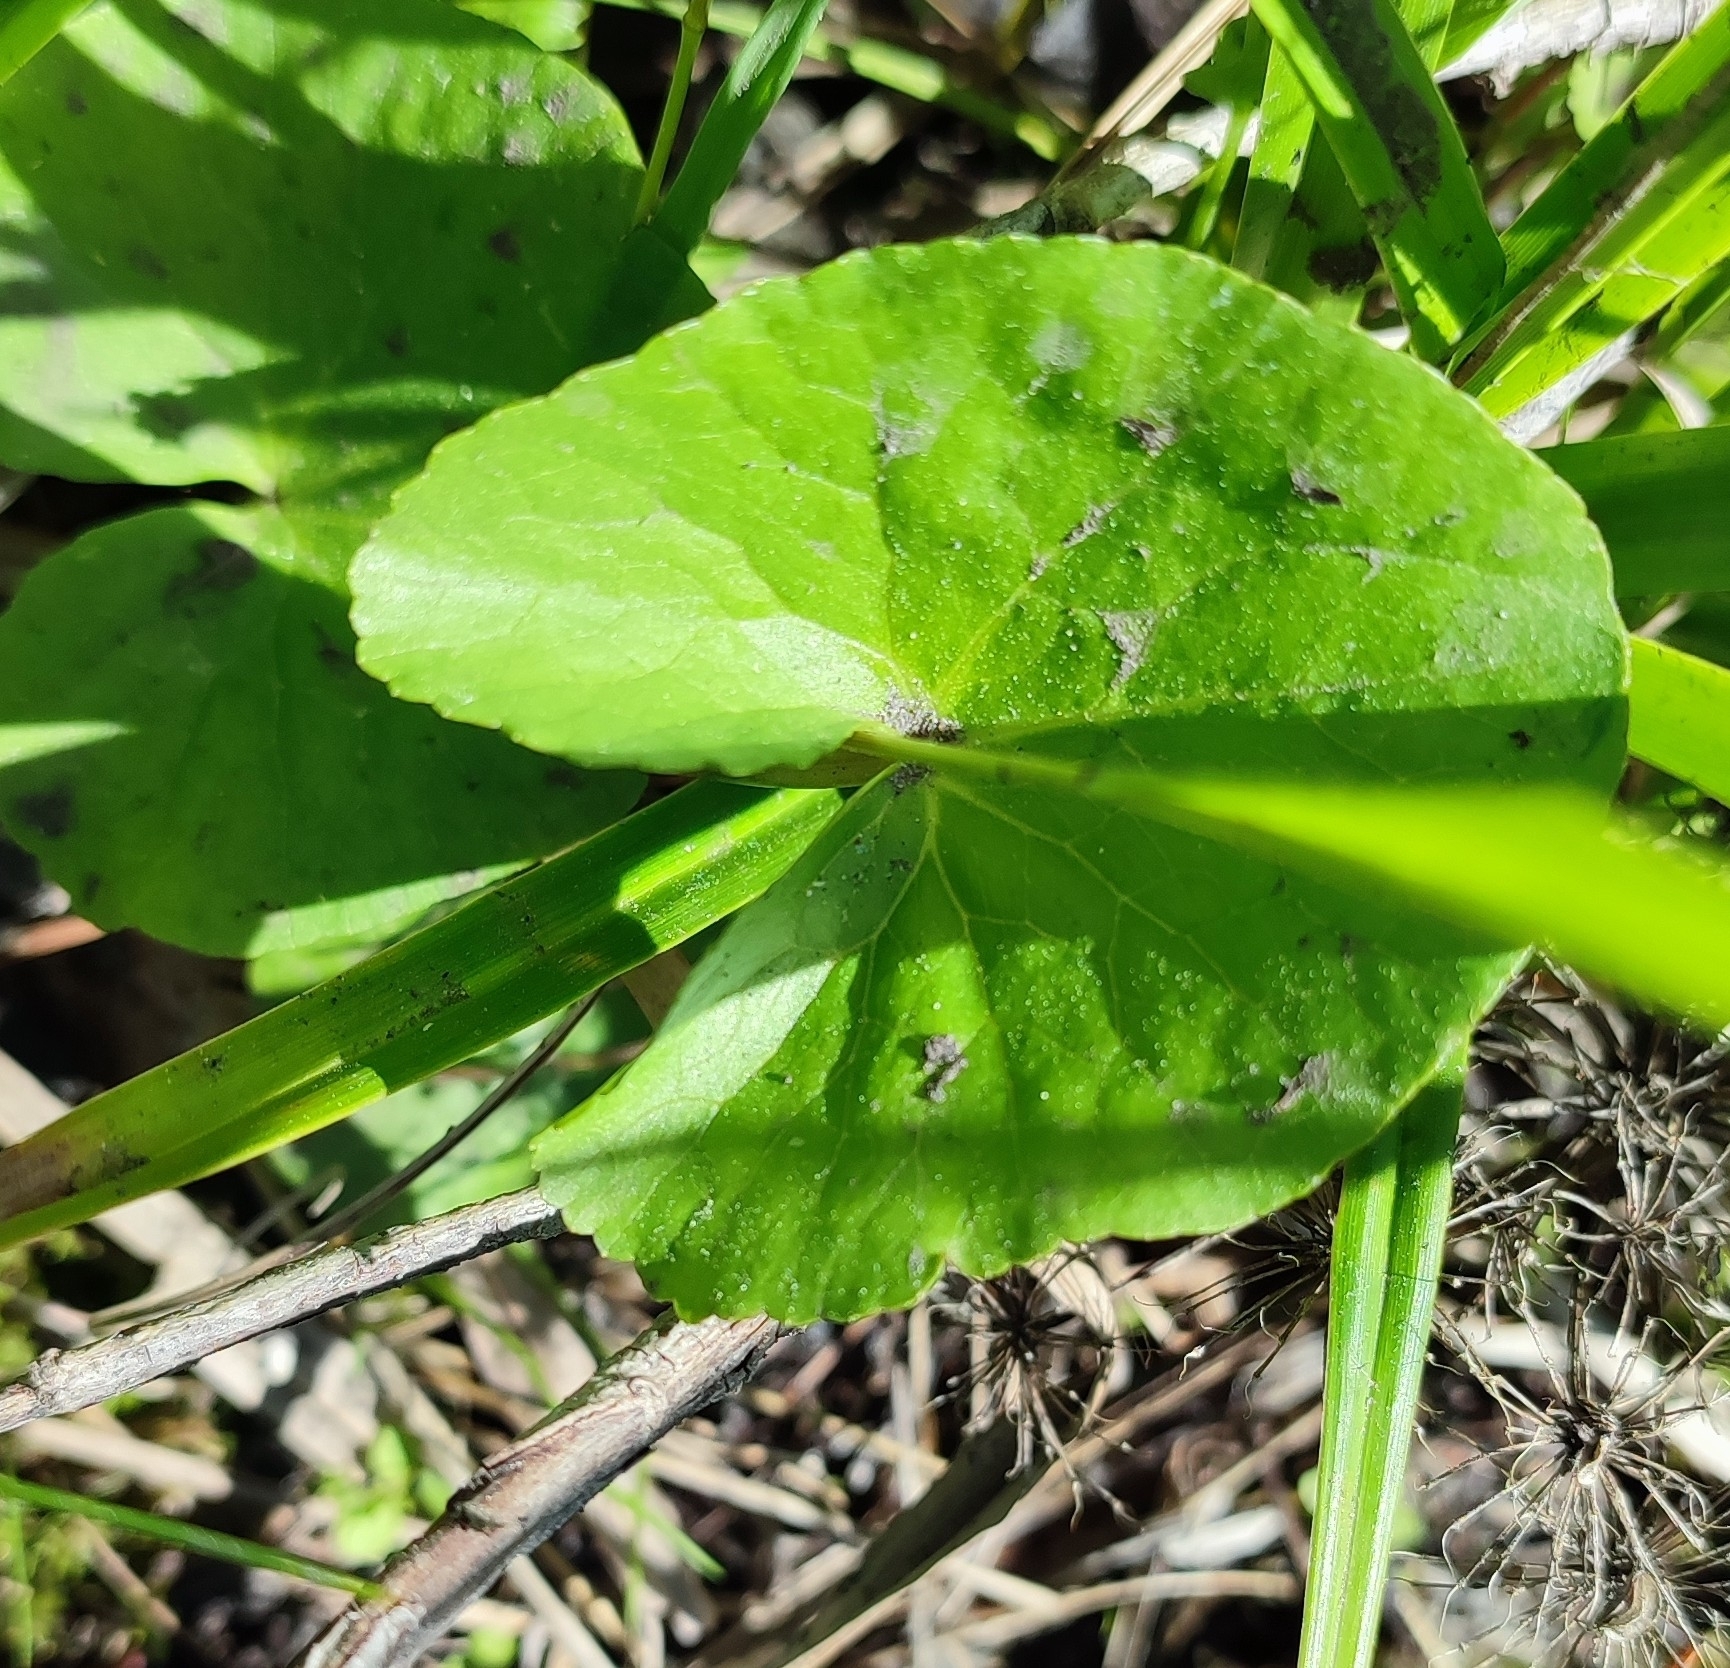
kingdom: Plantae
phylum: Tracheophyta
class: Magnoliopsida
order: Ranunculales
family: Ranunculaceae
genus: Caltha
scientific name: Caltha palustris
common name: Marsh marigold
